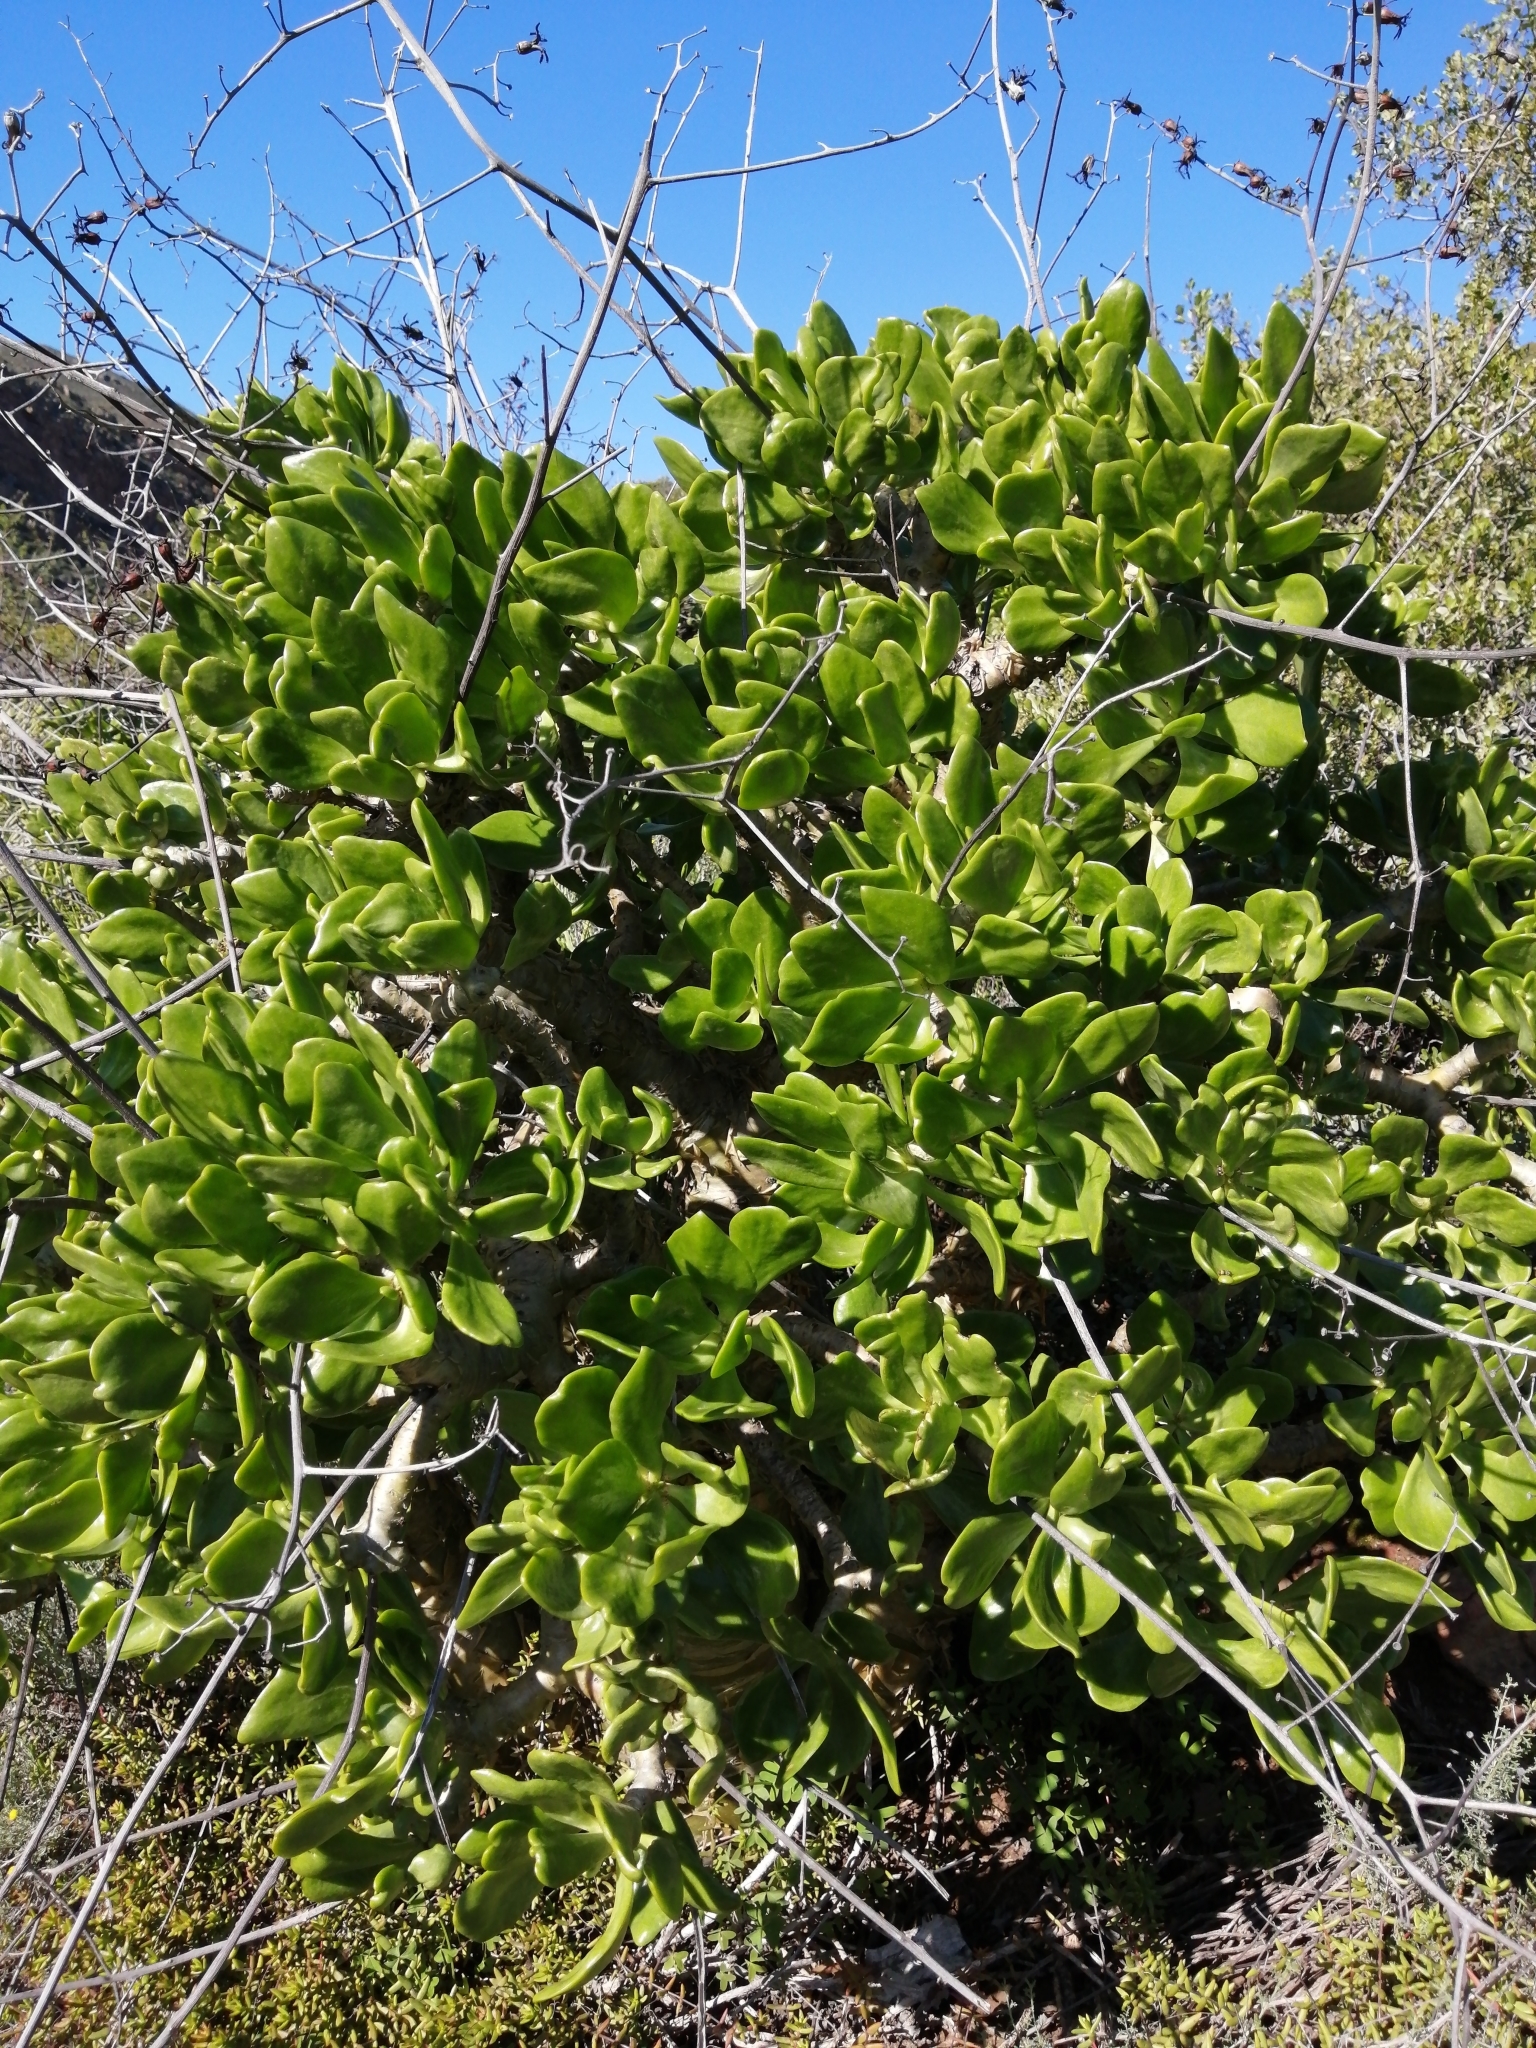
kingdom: Plantae
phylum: Tracheophyta
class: Magnoliopsida
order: Saxifragales
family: Crassulaceae
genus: Tylecodon
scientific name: Tylecodon paniculatus
